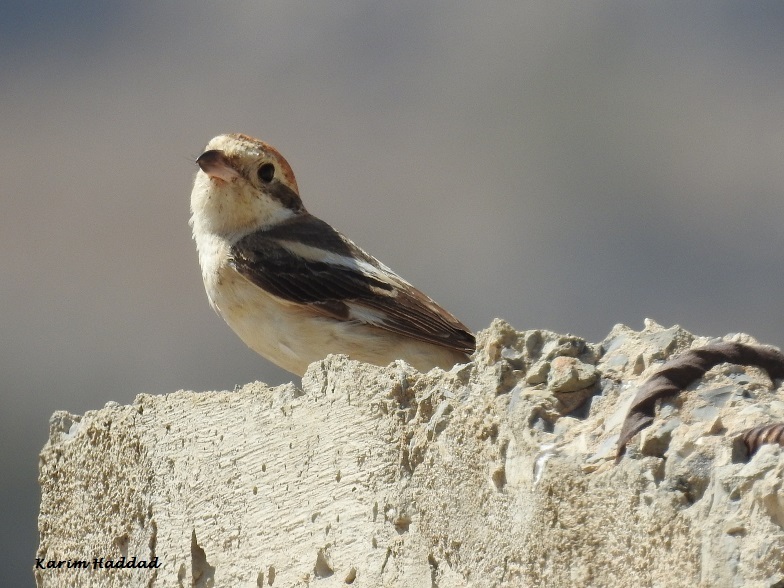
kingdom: Animalia
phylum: Chordata
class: Aves
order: Passeriformes
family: Laniidae
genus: Lanius
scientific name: Lanius senator
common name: Woodchat shrike
